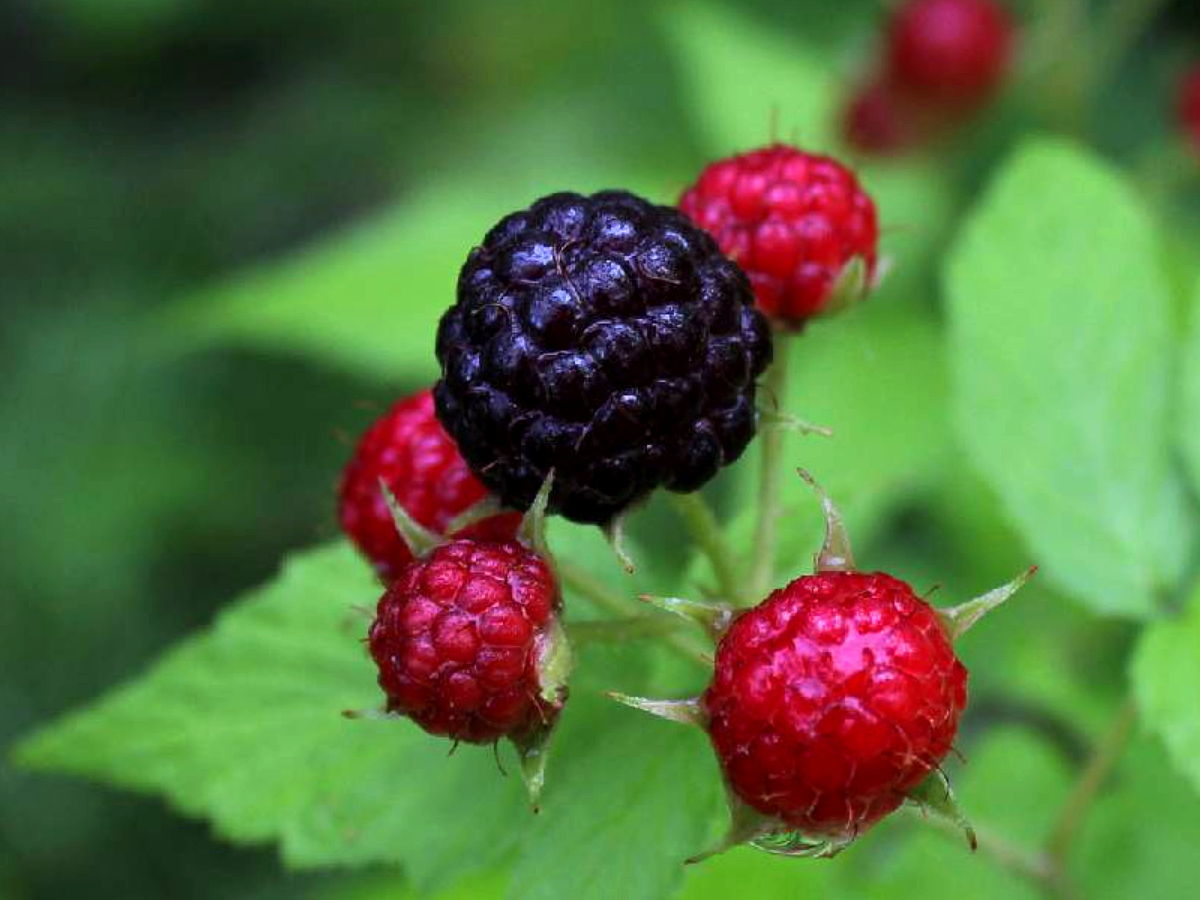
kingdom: Plantae
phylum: Tracheophyta
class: Magnoliopsida
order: Rosales
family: Rosaceae
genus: Rubus
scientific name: Rubus occidentalis
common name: Black raspberry
